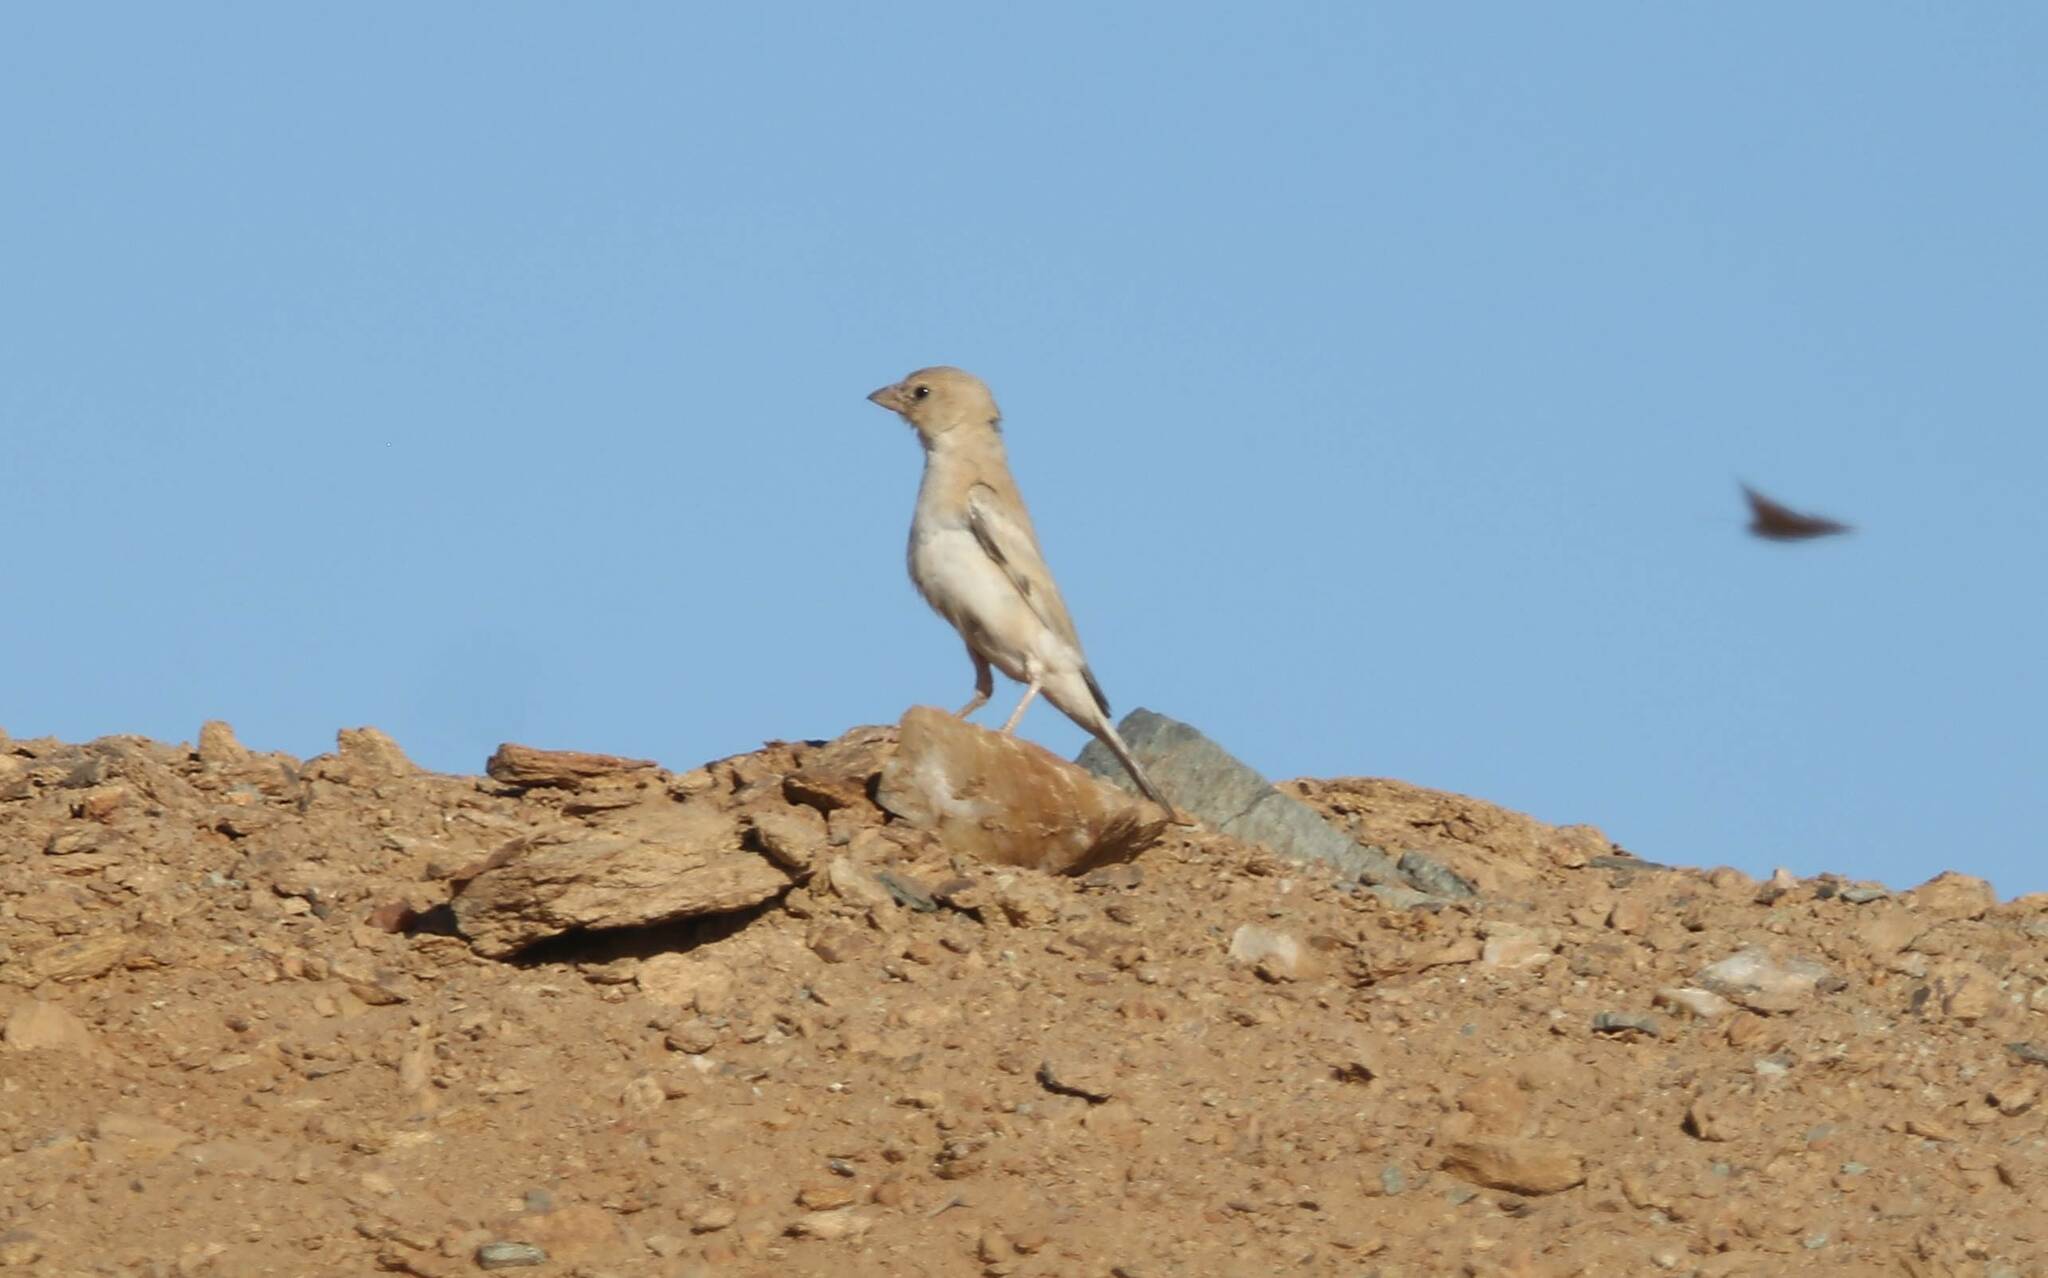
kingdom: Animalia
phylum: Chordata
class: Aves
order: Passeriformes
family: Passeridae
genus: Passer
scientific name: Passer simplex
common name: Desert sparrow
